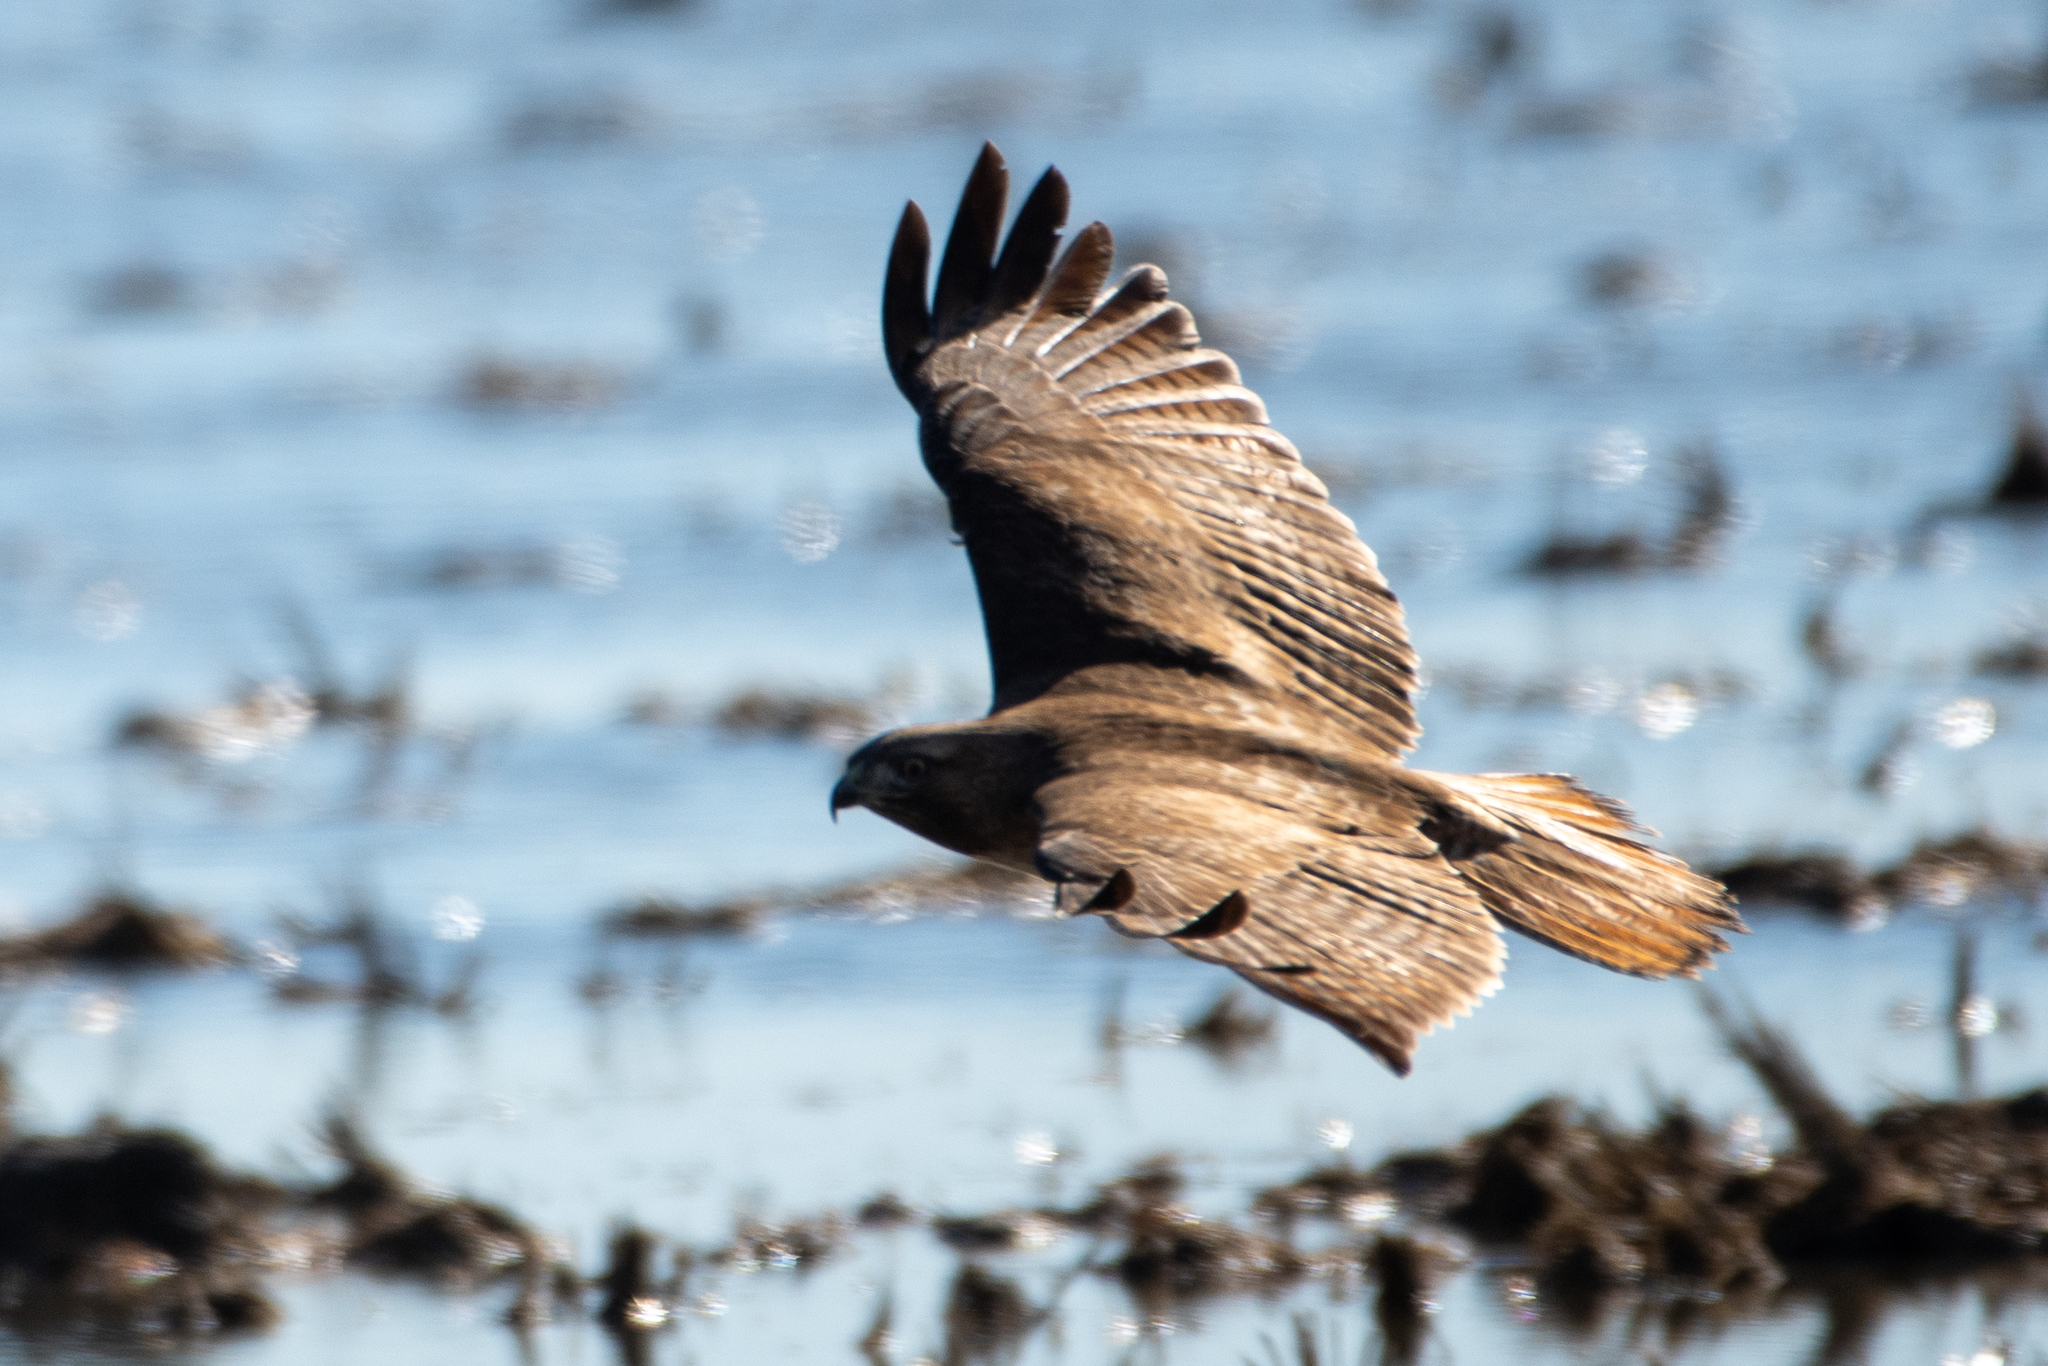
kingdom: Animalia
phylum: Chordata
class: Aves
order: Accipitriformes
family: Accipitridae
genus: Buteo
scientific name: Buteo jamaicensis
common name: Red-tailed hawk
